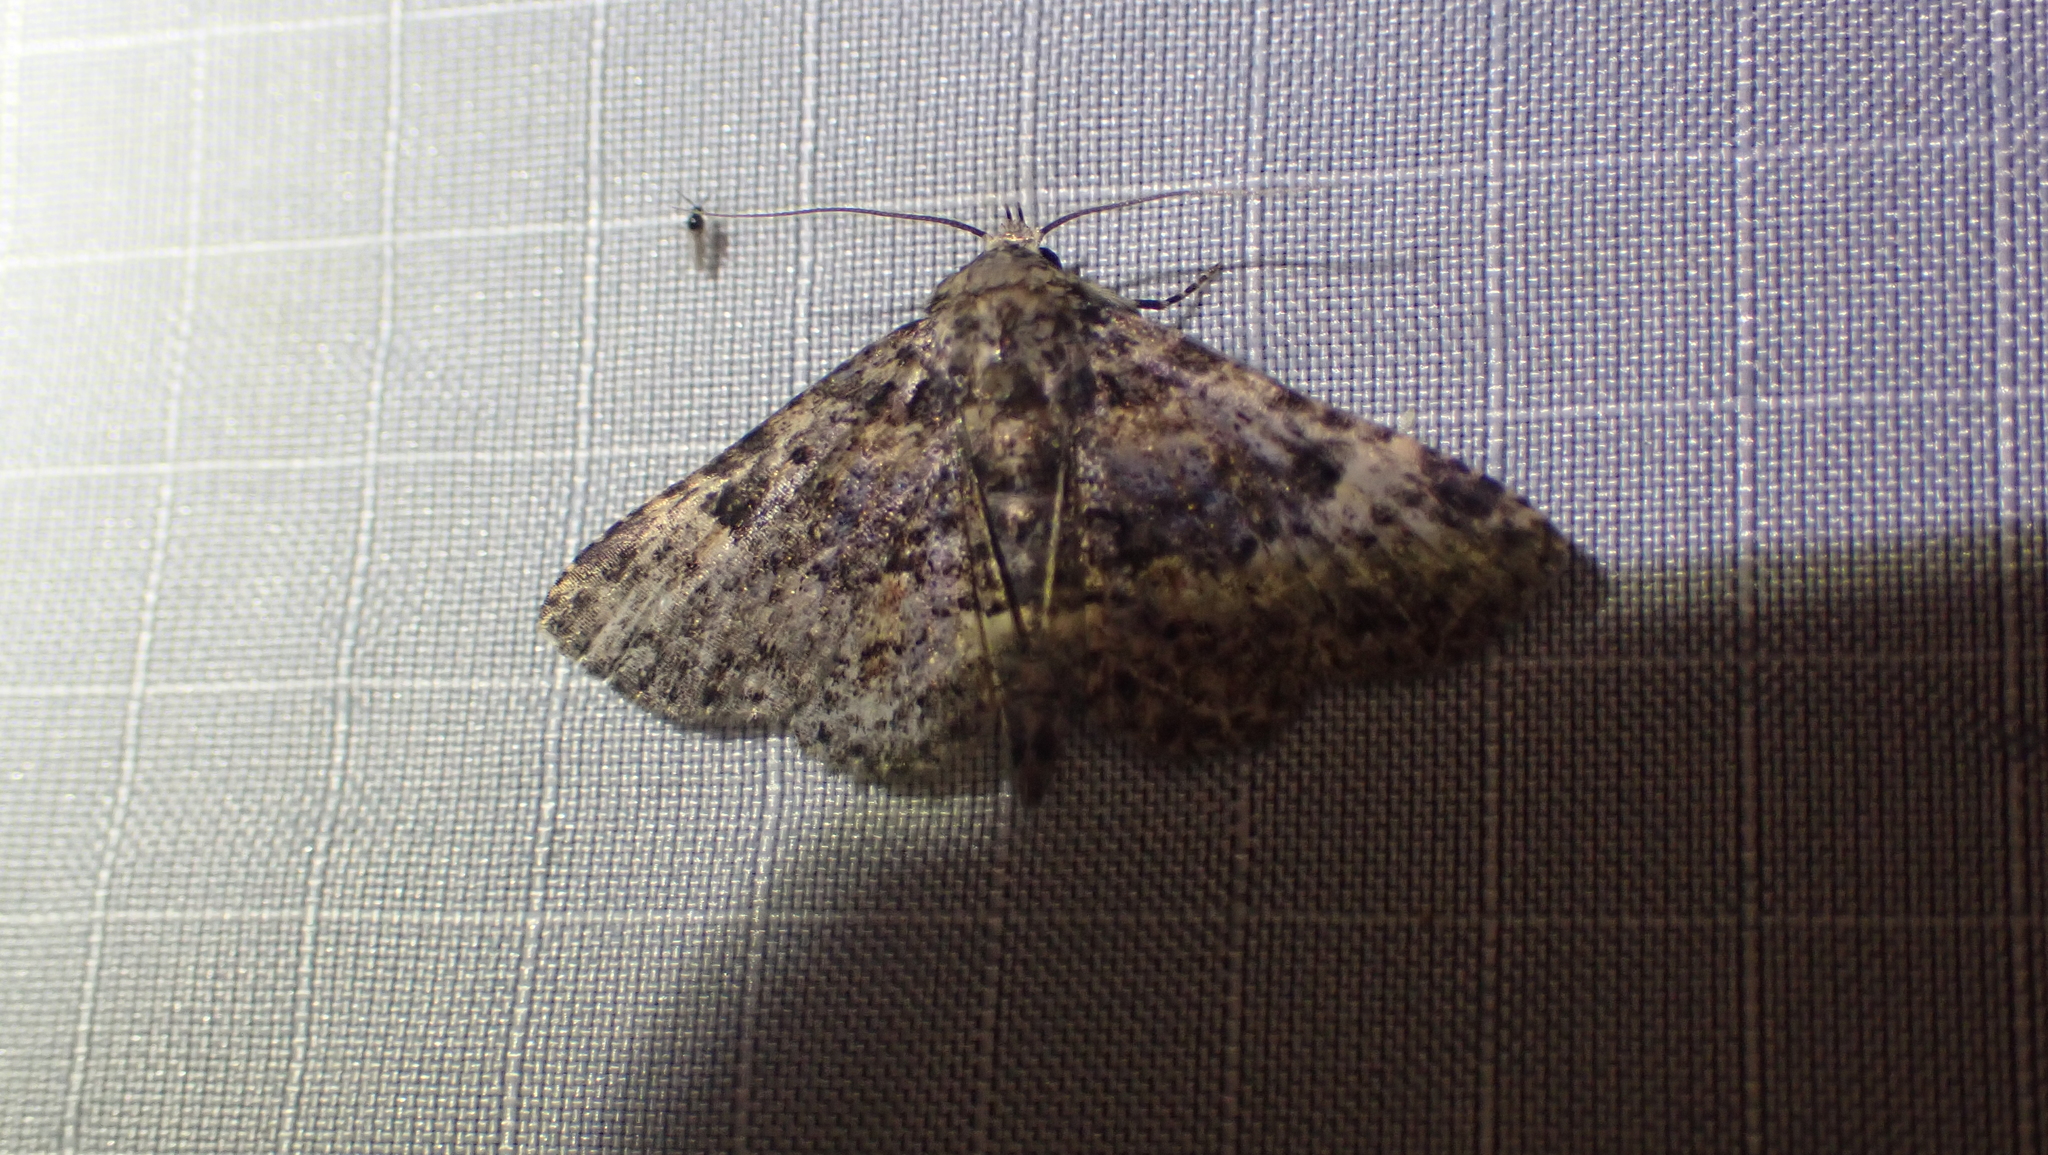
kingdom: Animalia
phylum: Arthropoda
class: Insecta
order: Lepidoptera
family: Erebidae
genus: Metalectra
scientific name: Metalectra discalis
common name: Common fungus moth
